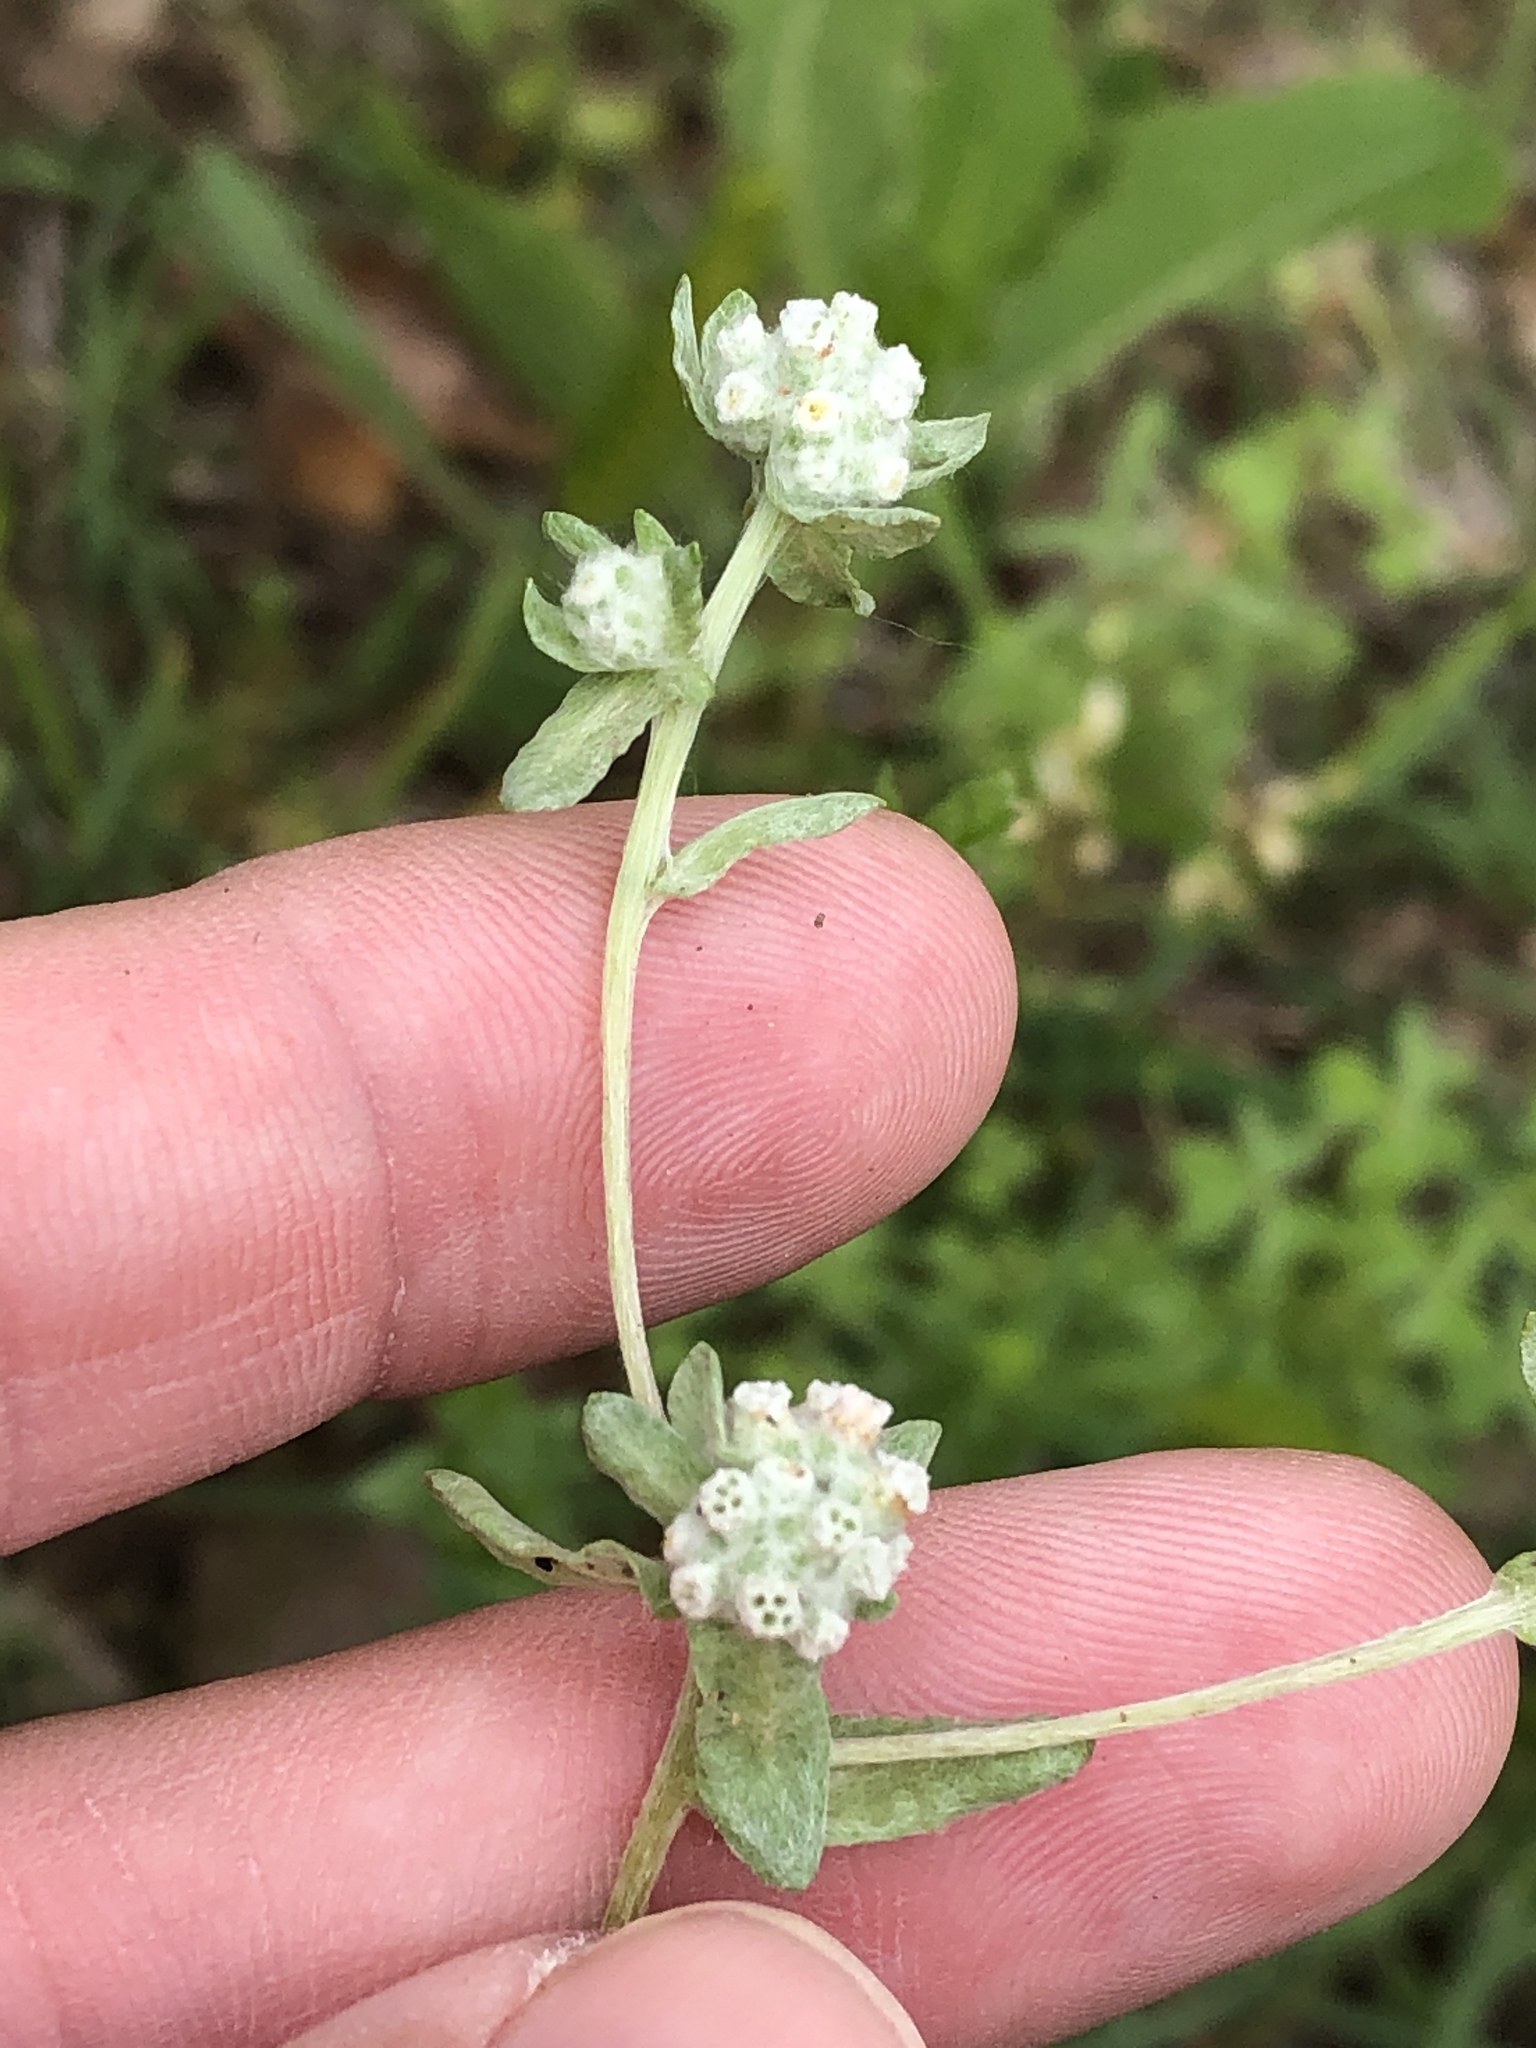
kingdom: Plantae
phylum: Tracheophyta
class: Magnoliopsida
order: Asterales
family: Asteraceae
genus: Diaperia
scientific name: Diaperia verna
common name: Many-stem rabbit-tobacco
